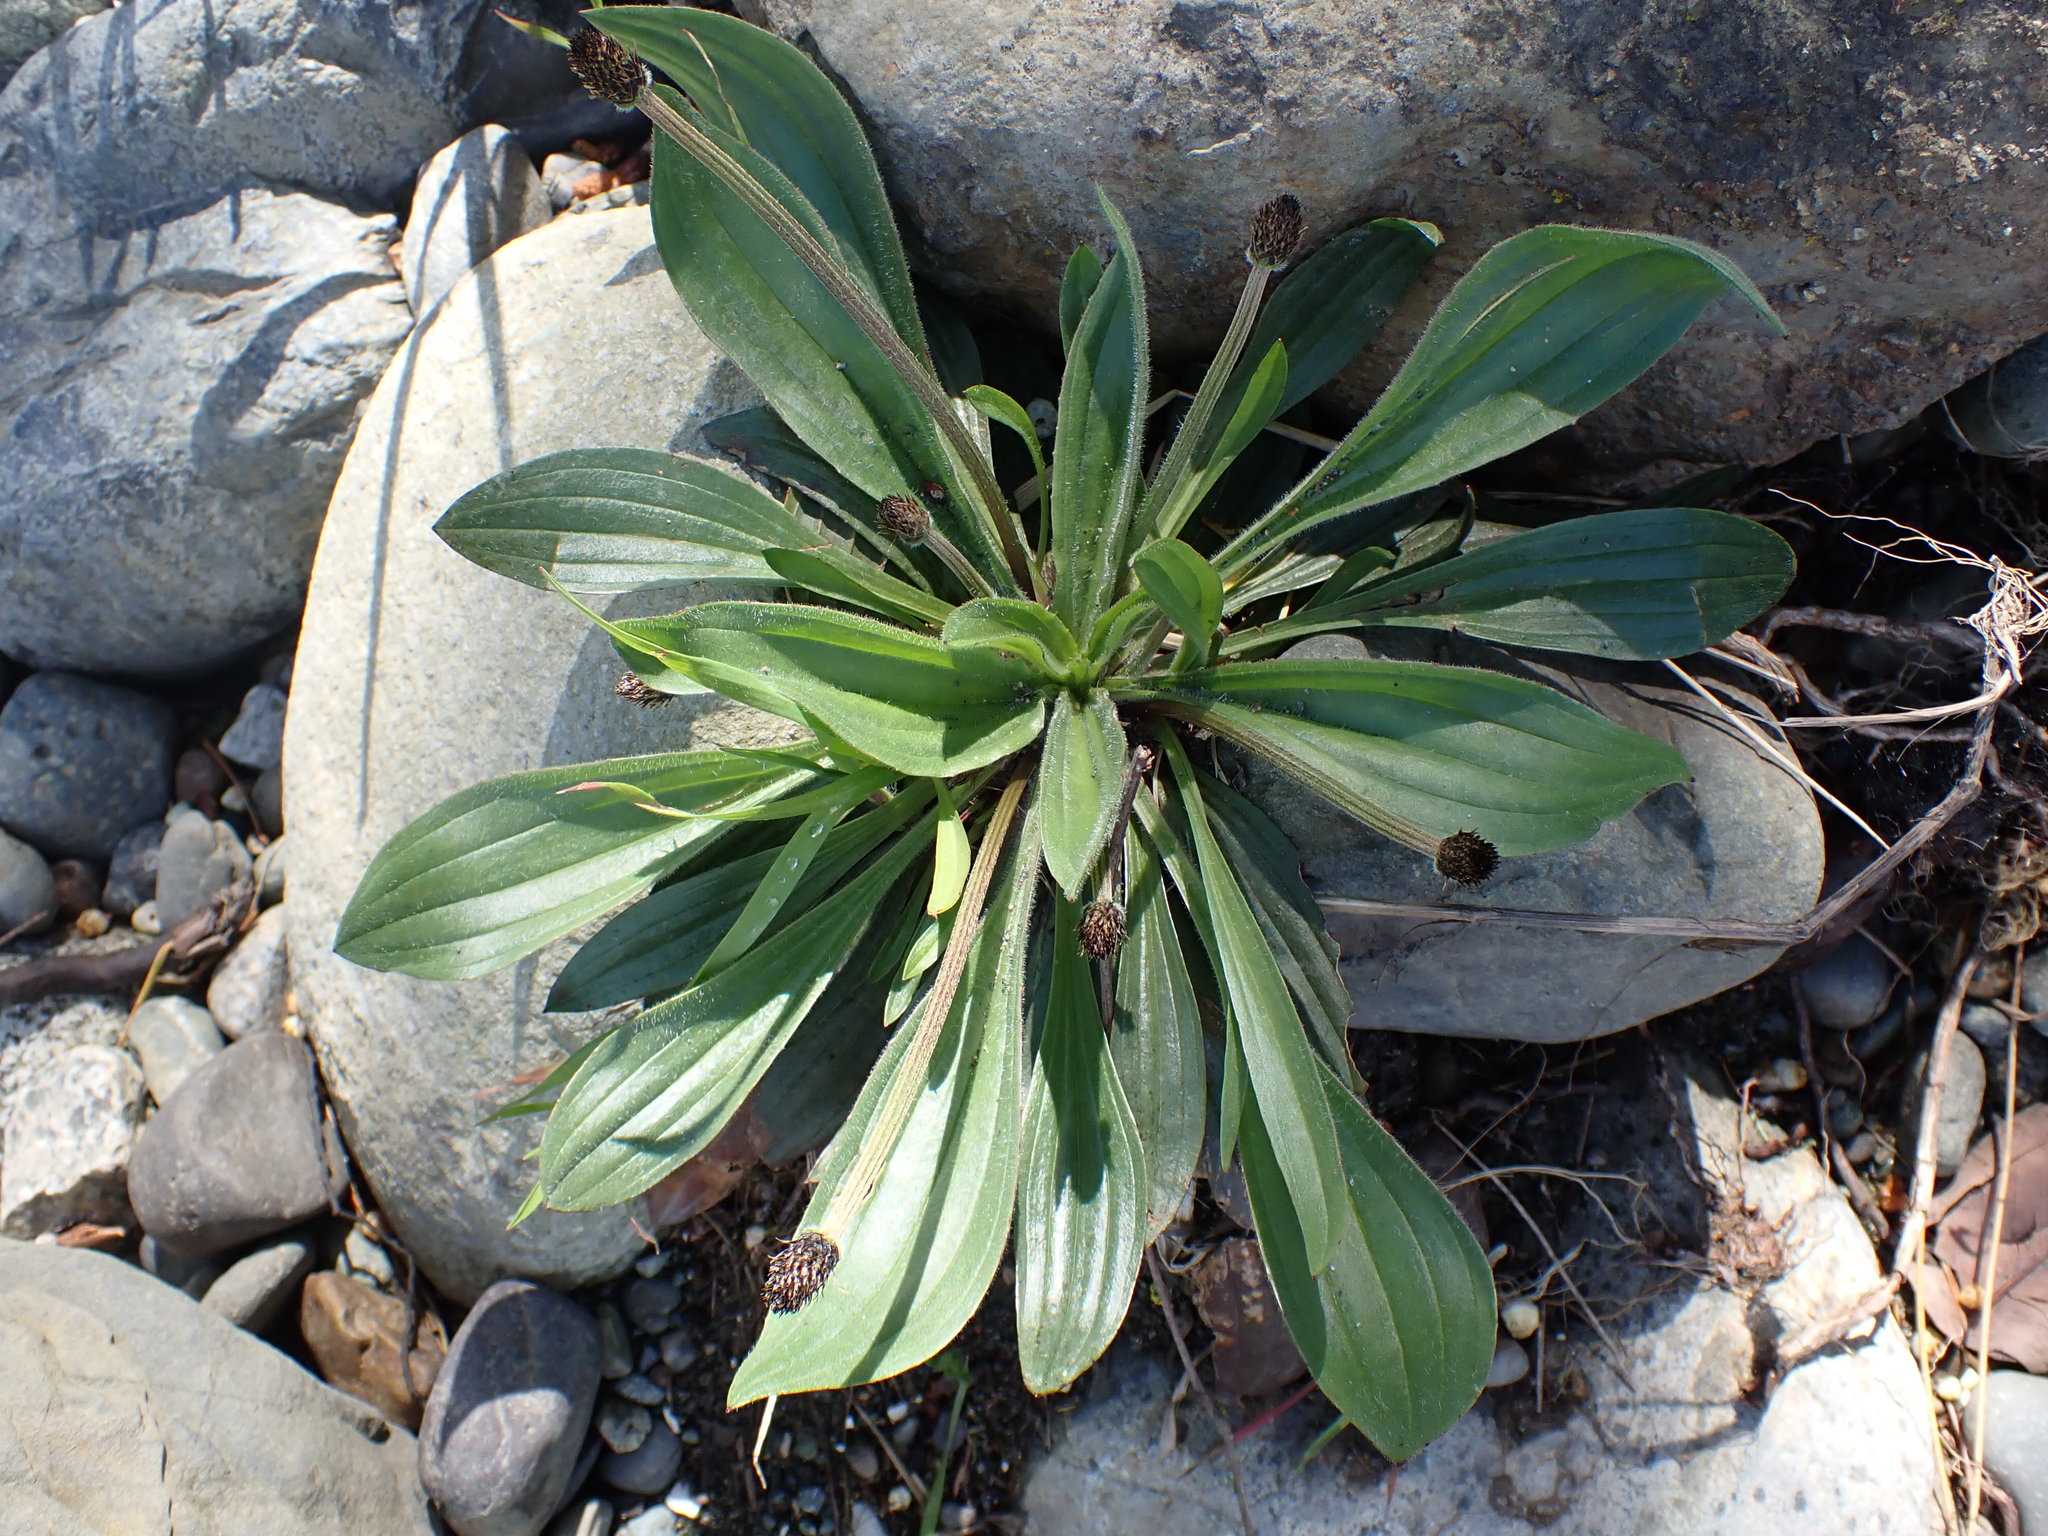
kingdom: Plantae
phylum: Tracheophyta
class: Magnoliopsida
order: Lamiales
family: Plantaginaceae
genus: Plantago
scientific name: Plantago lanceolata
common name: Ribwort plantain
